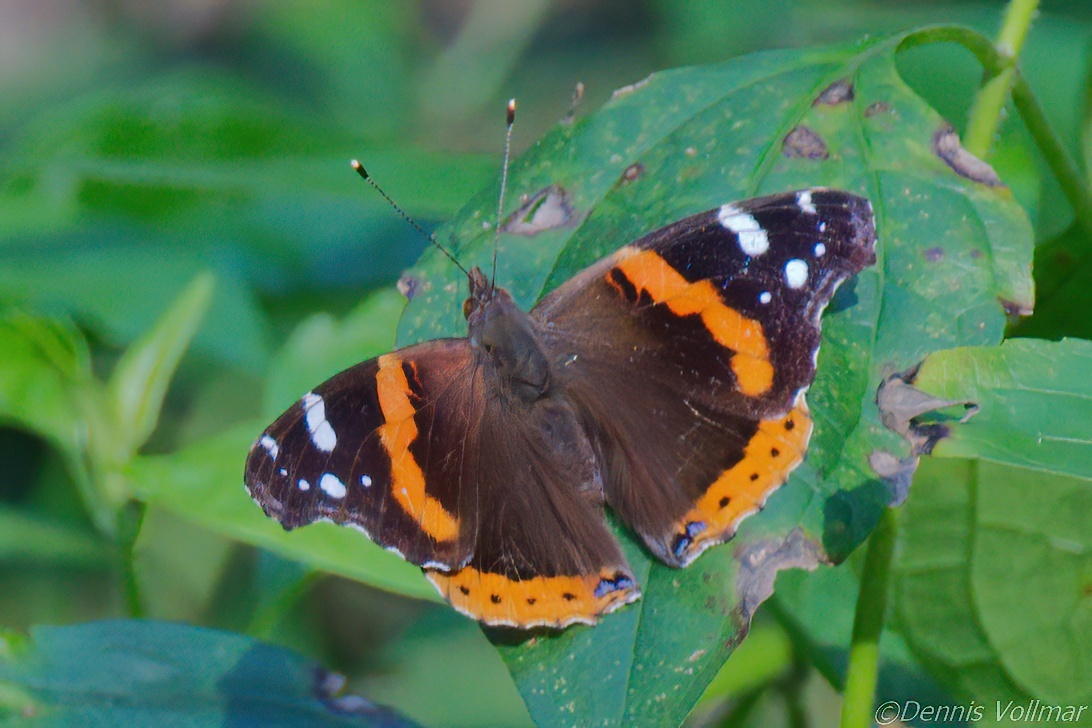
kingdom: Animalia
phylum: Arthropoda
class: Insecta
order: Lepidoptera
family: Nymphalidae
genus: Vanessa
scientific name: Vanessa atalanta
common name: Red admiral
